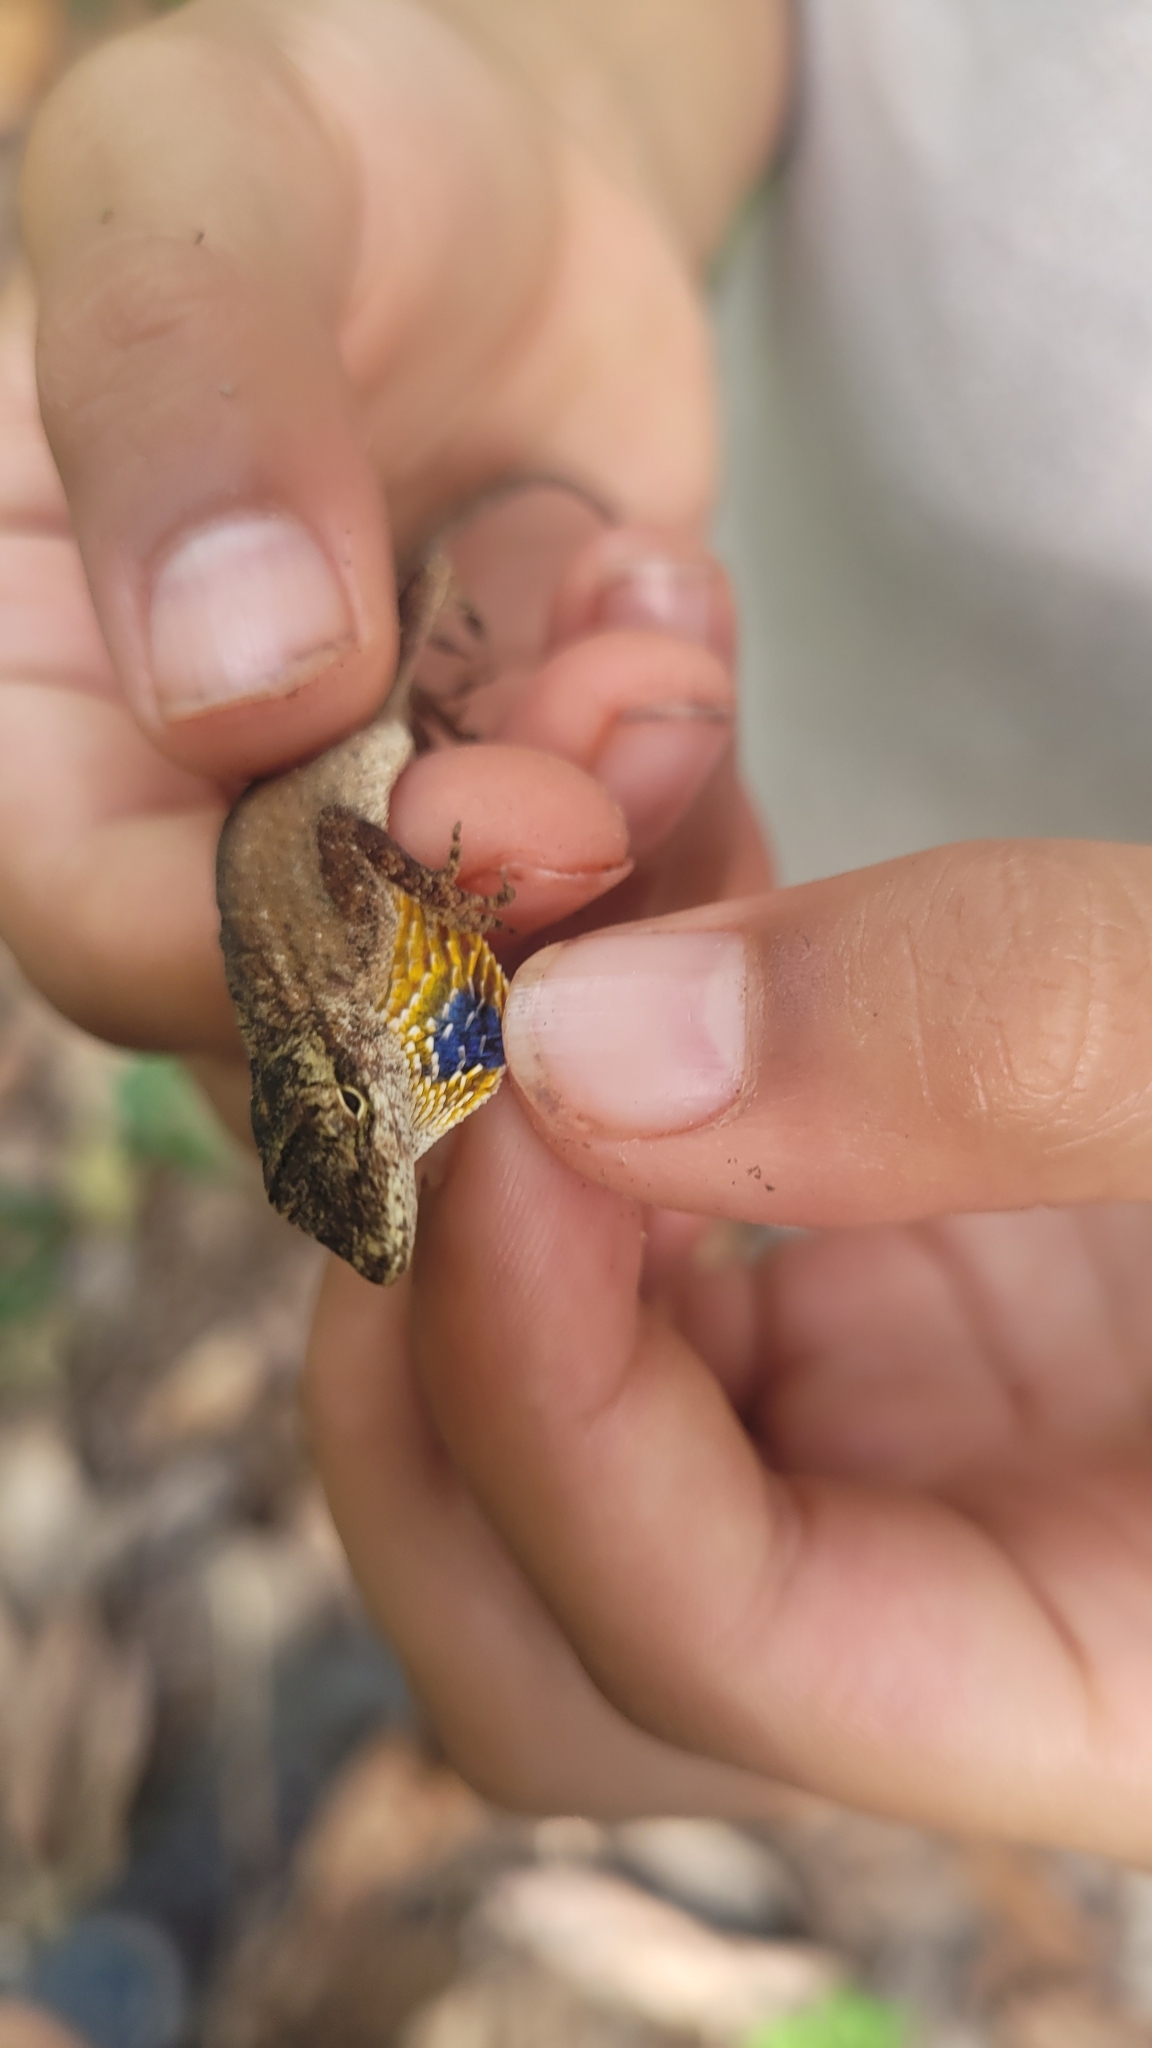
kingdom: Animalia
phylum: Chordata
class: Squamata
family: Dactyloidae
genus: Anolis
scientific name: Anolis unilobatus
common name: Blue-spotted fan anole
